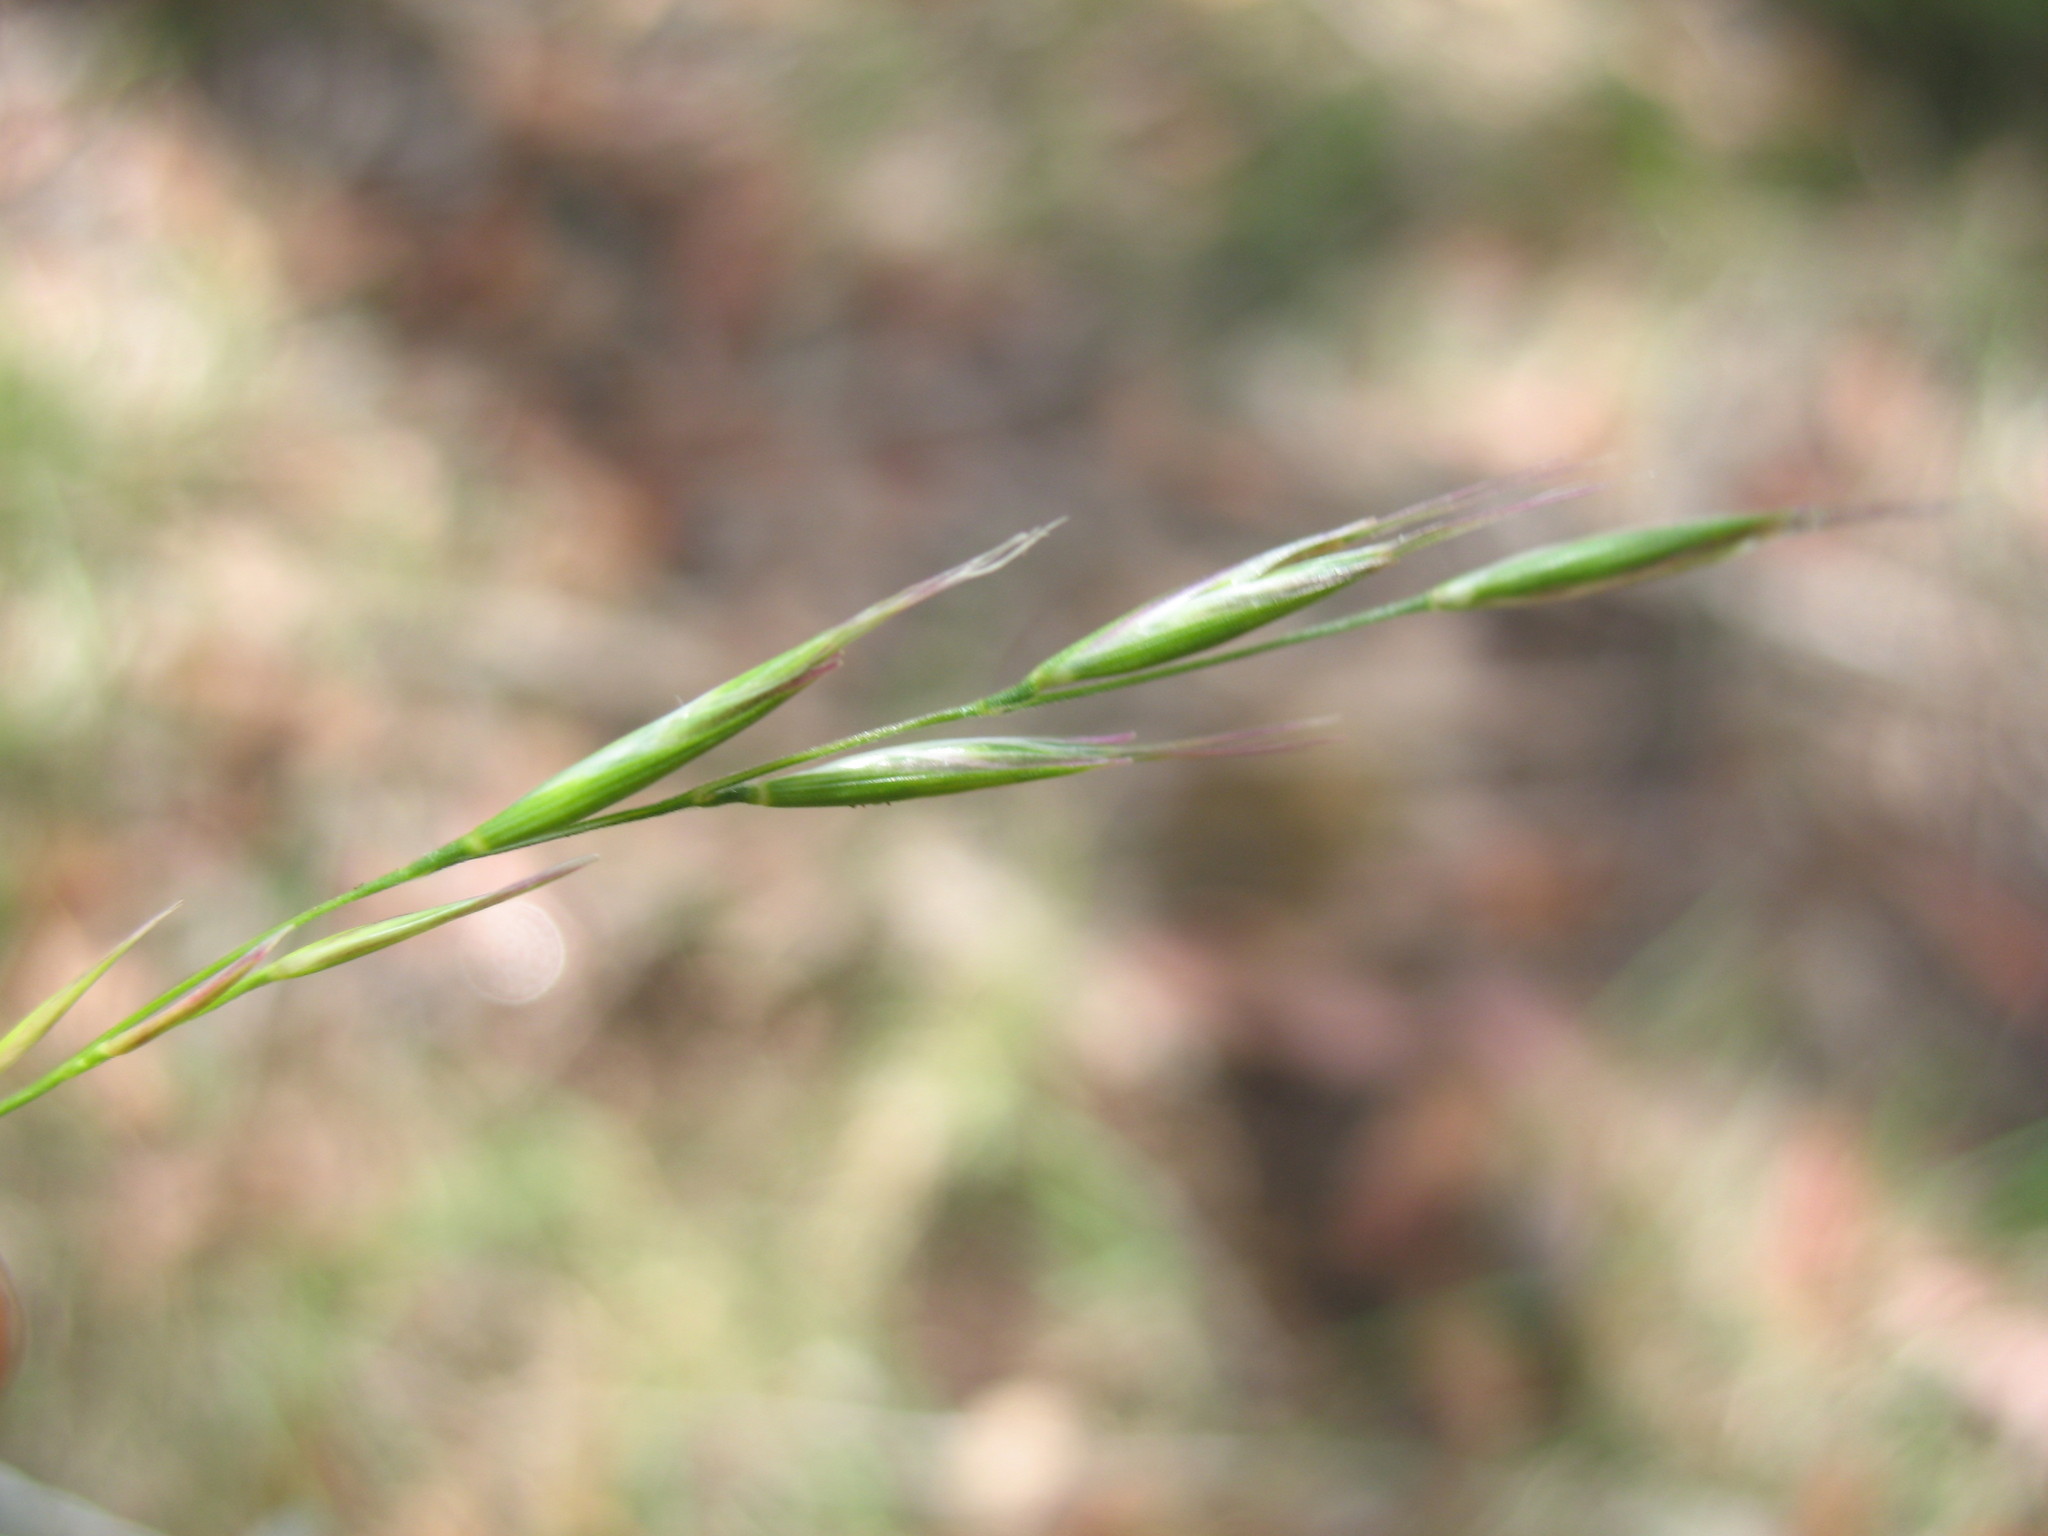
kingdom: Plantae
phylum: Tracheophyta
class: Liliopsida
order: Poales
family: Poaceae
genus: Rytidosperma
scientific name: Rytidosperma penicillatum
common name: Hairy wallaby grass
